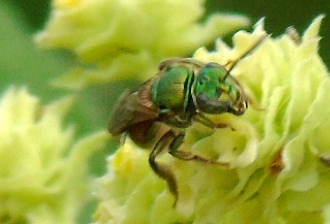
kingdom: Animalia
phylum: Arthropoda
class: Insecta
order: Hymenoptera
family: Halictidae
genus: Augochloropsis
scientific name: Augochloropsis
